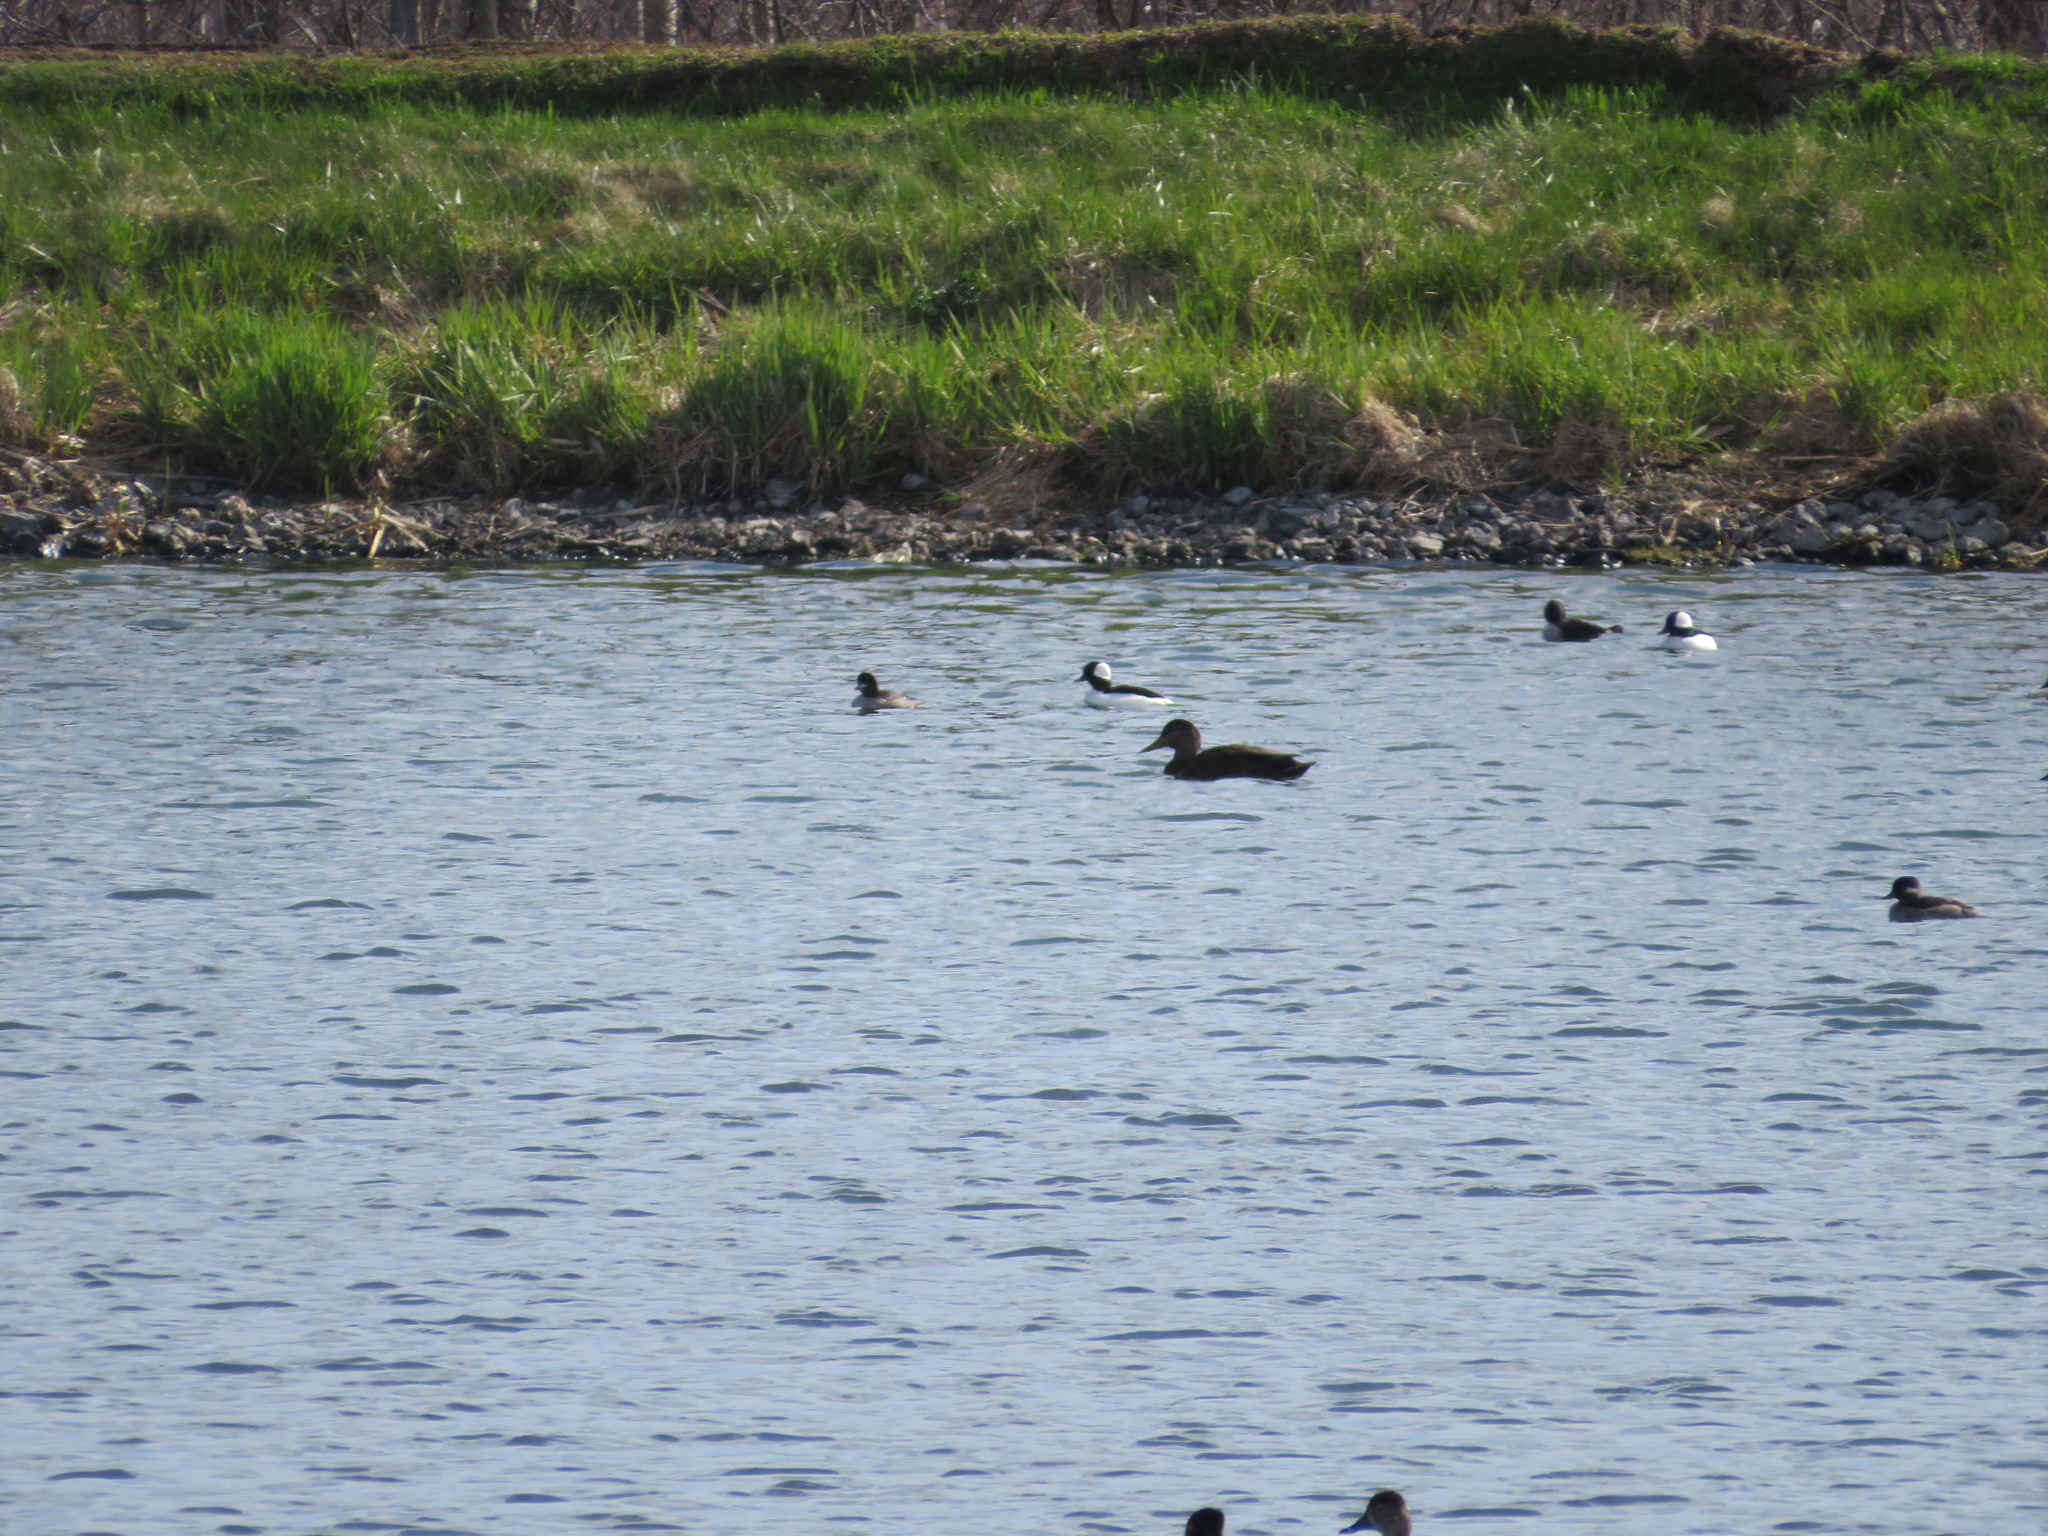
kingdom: Animalia
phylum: Chordata
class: Aves
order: Anseriformes
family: Anatidae
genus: Bucephala
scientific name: Bucephala albeola
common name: Bufflehead
